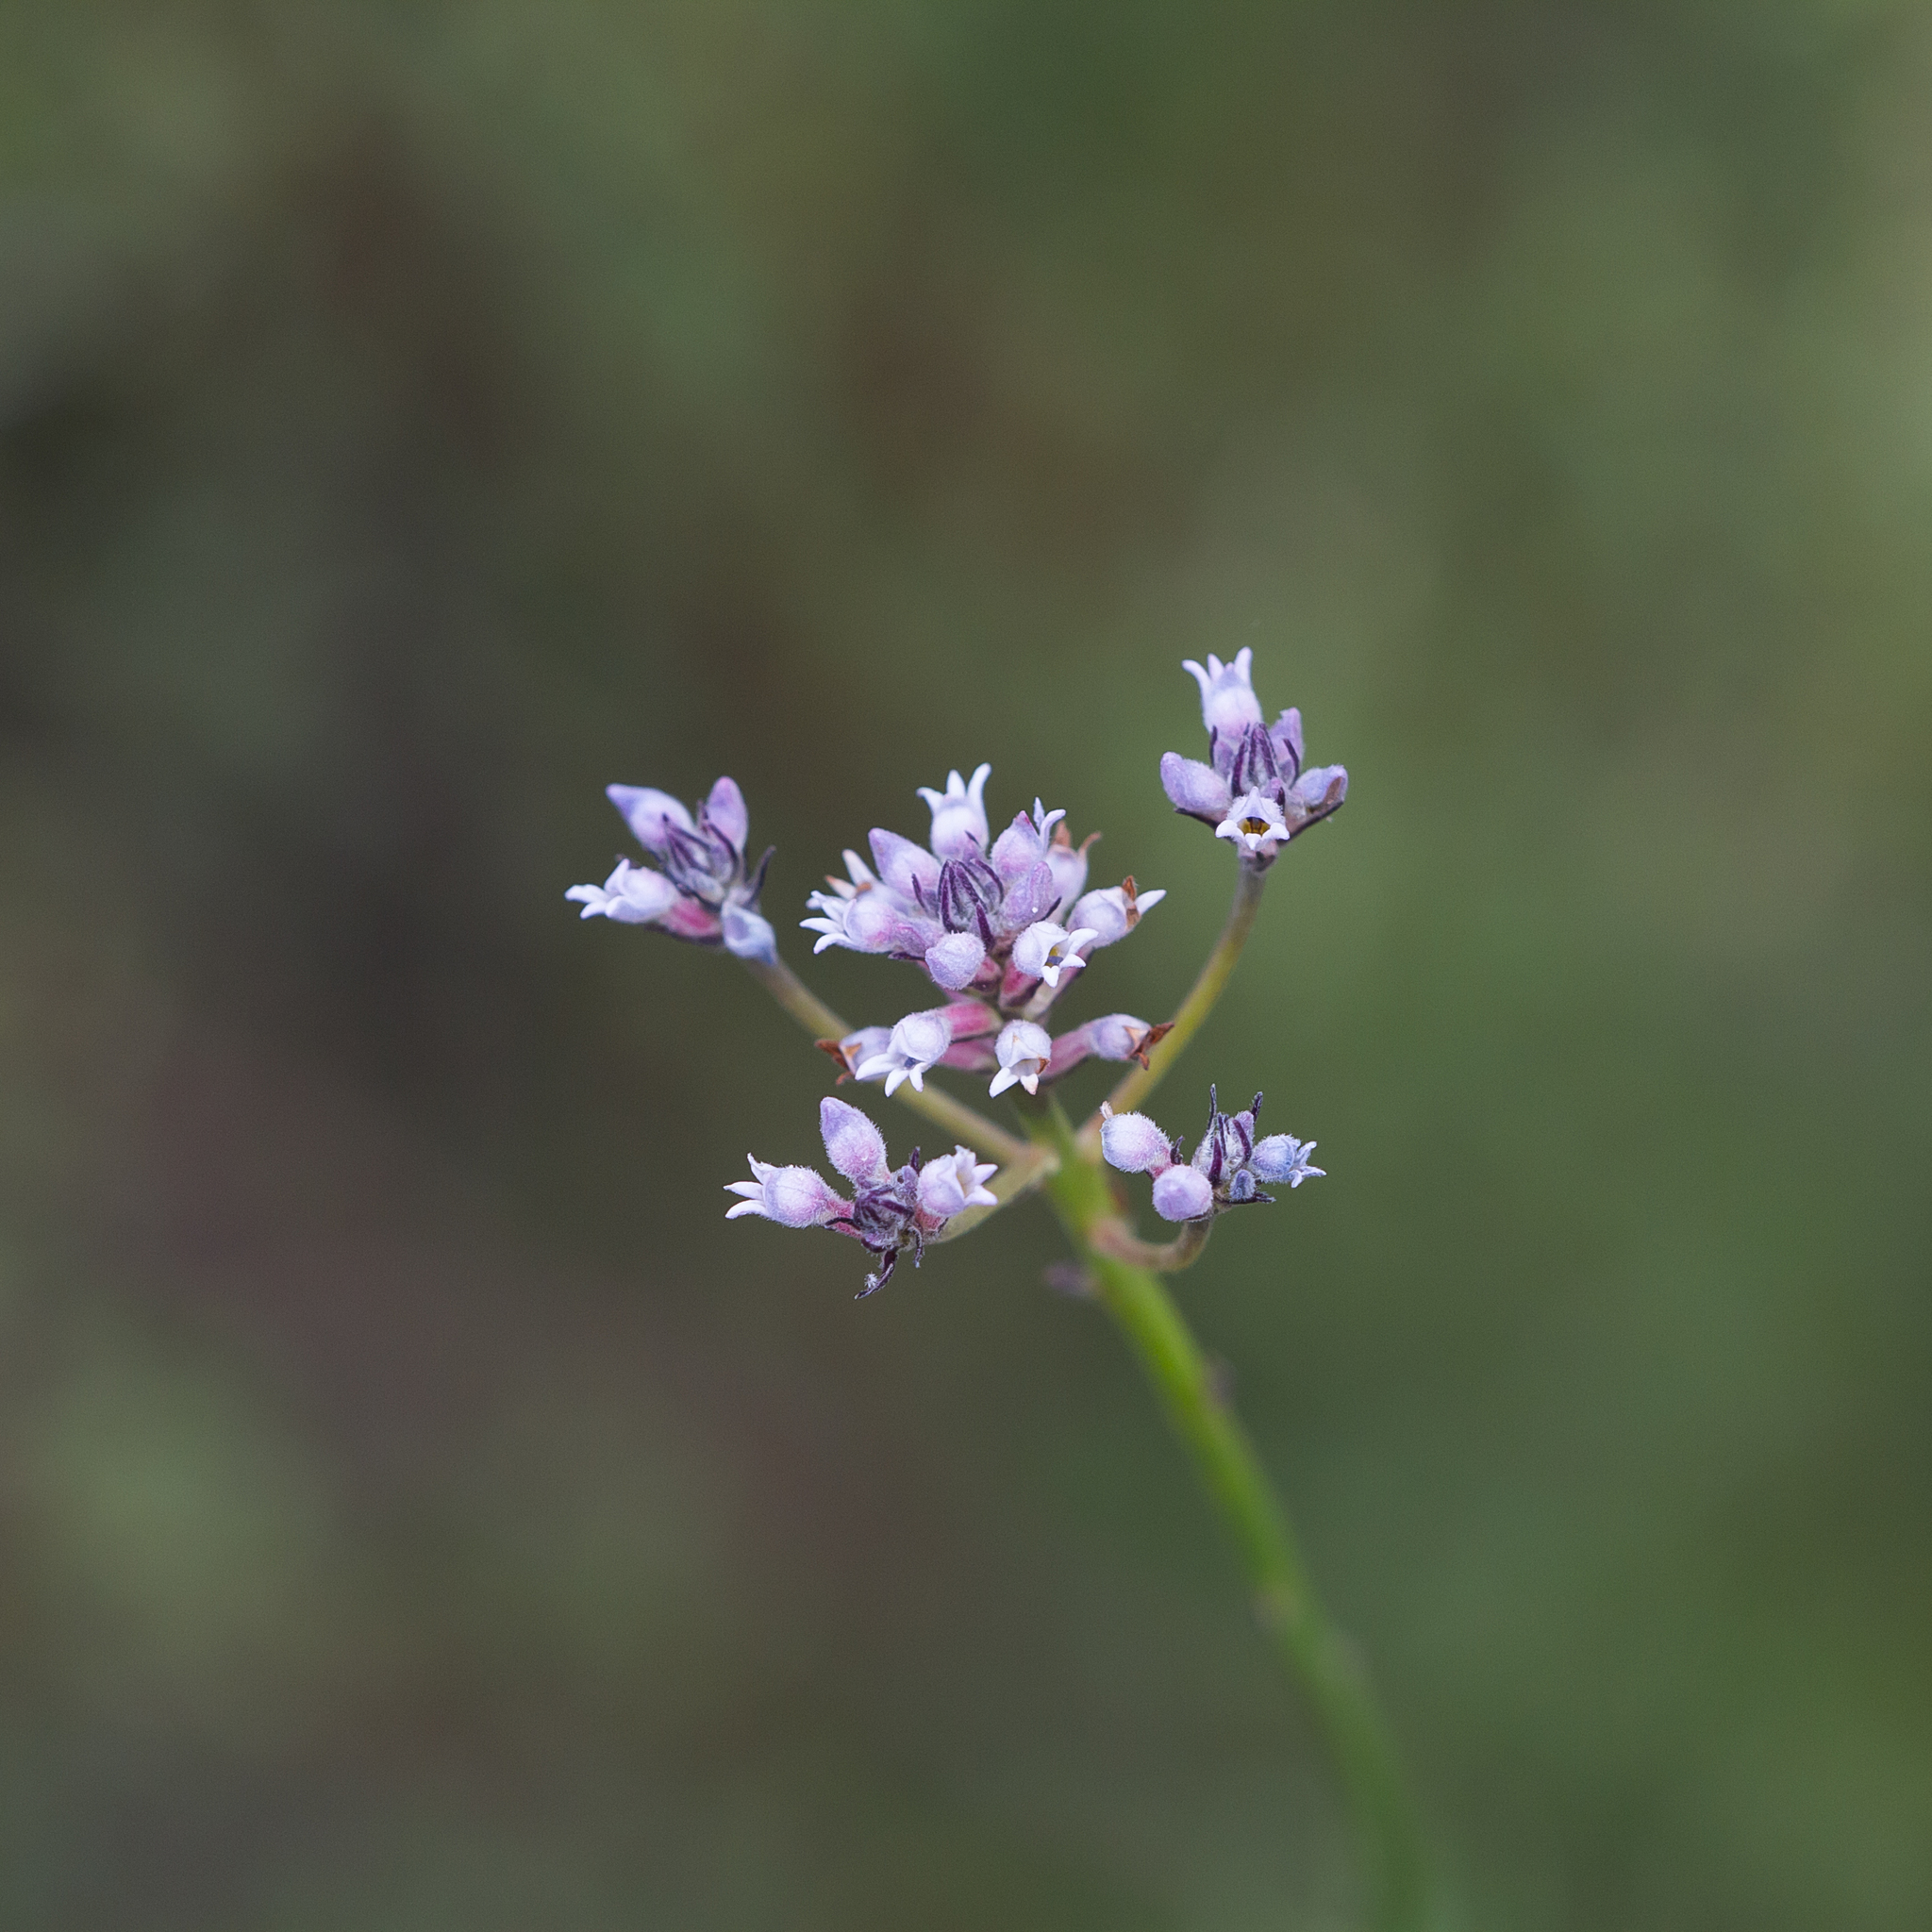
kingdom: Plantae
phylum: Tracheophyta
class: Magnoliopsida
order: Proteales
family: Proteaceae
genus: Conospermum
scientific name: Conospermum patens
